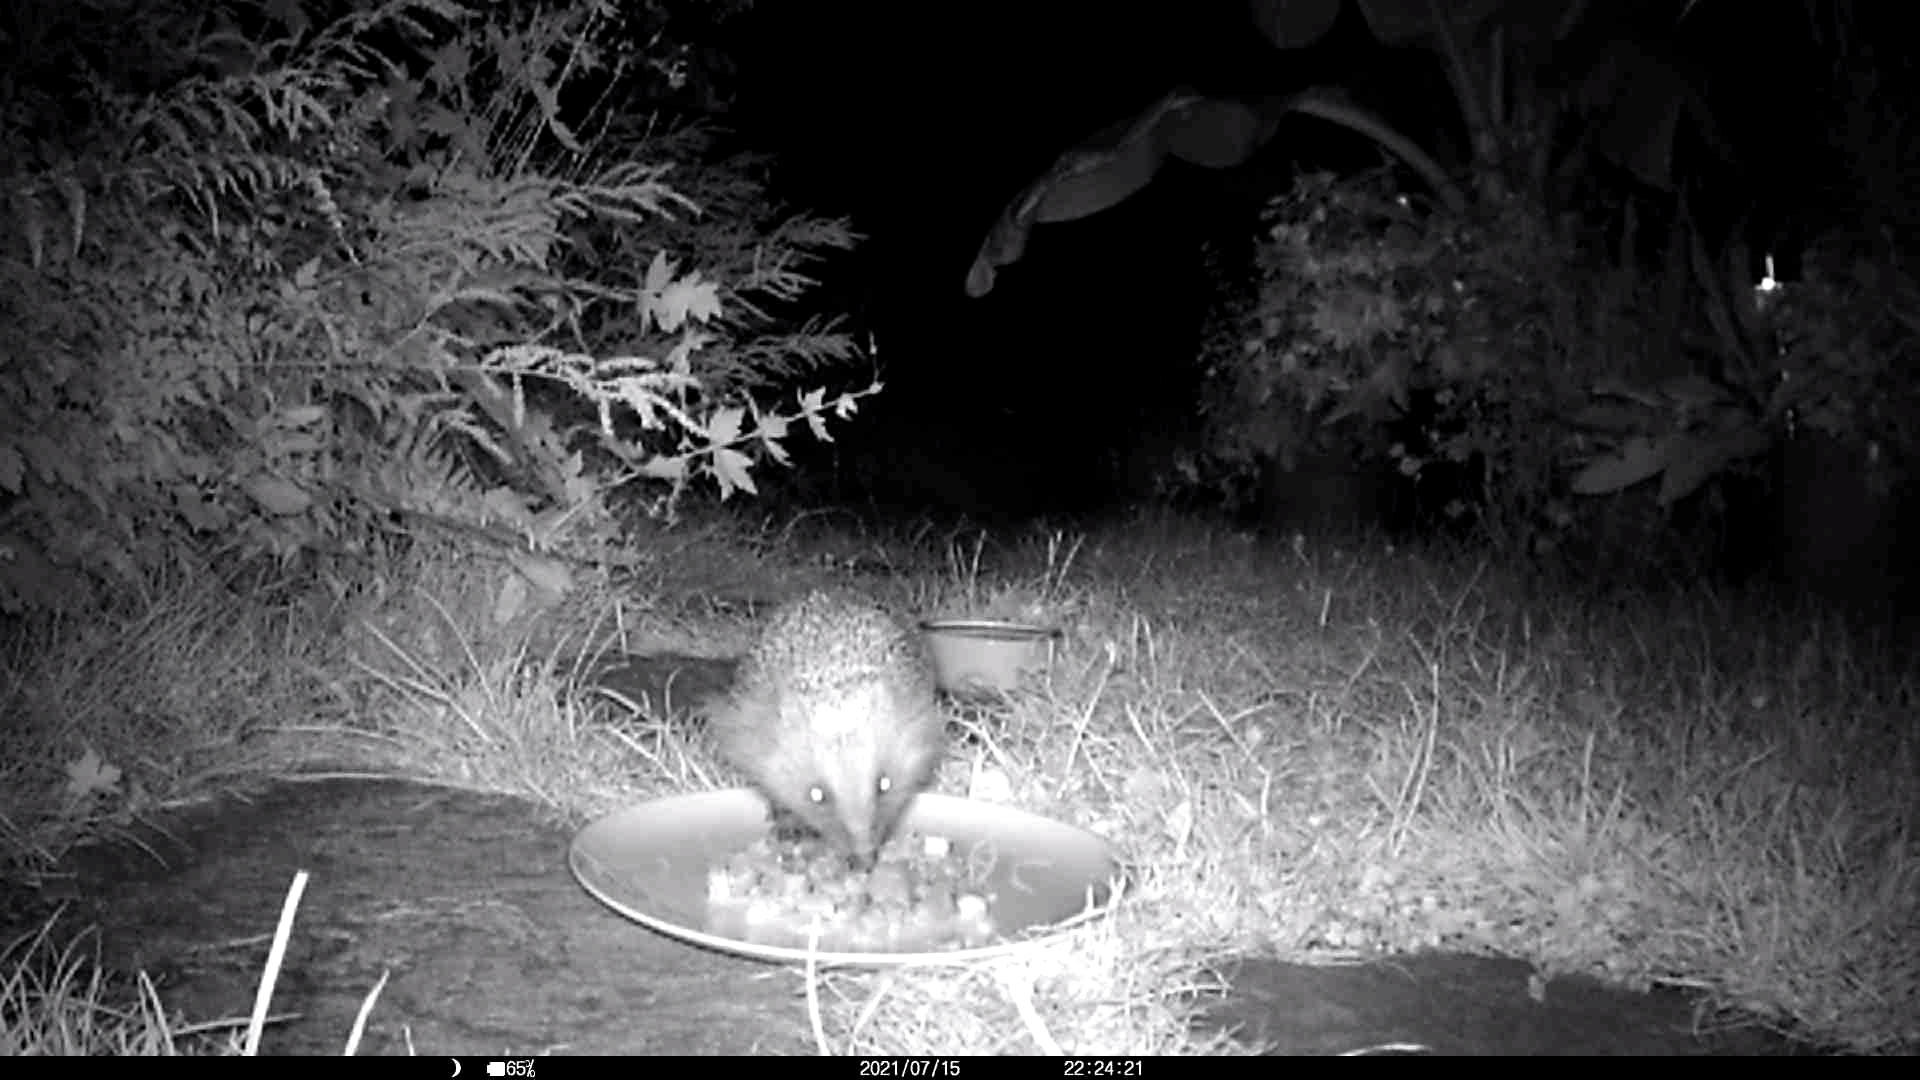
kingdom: Animalia
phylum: Chordata
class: Mammalia
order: Erinaceomorpha
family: Erinaceidae
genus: Erinaceus
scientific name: Erinaceus europaeus
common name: West european hedgehog
